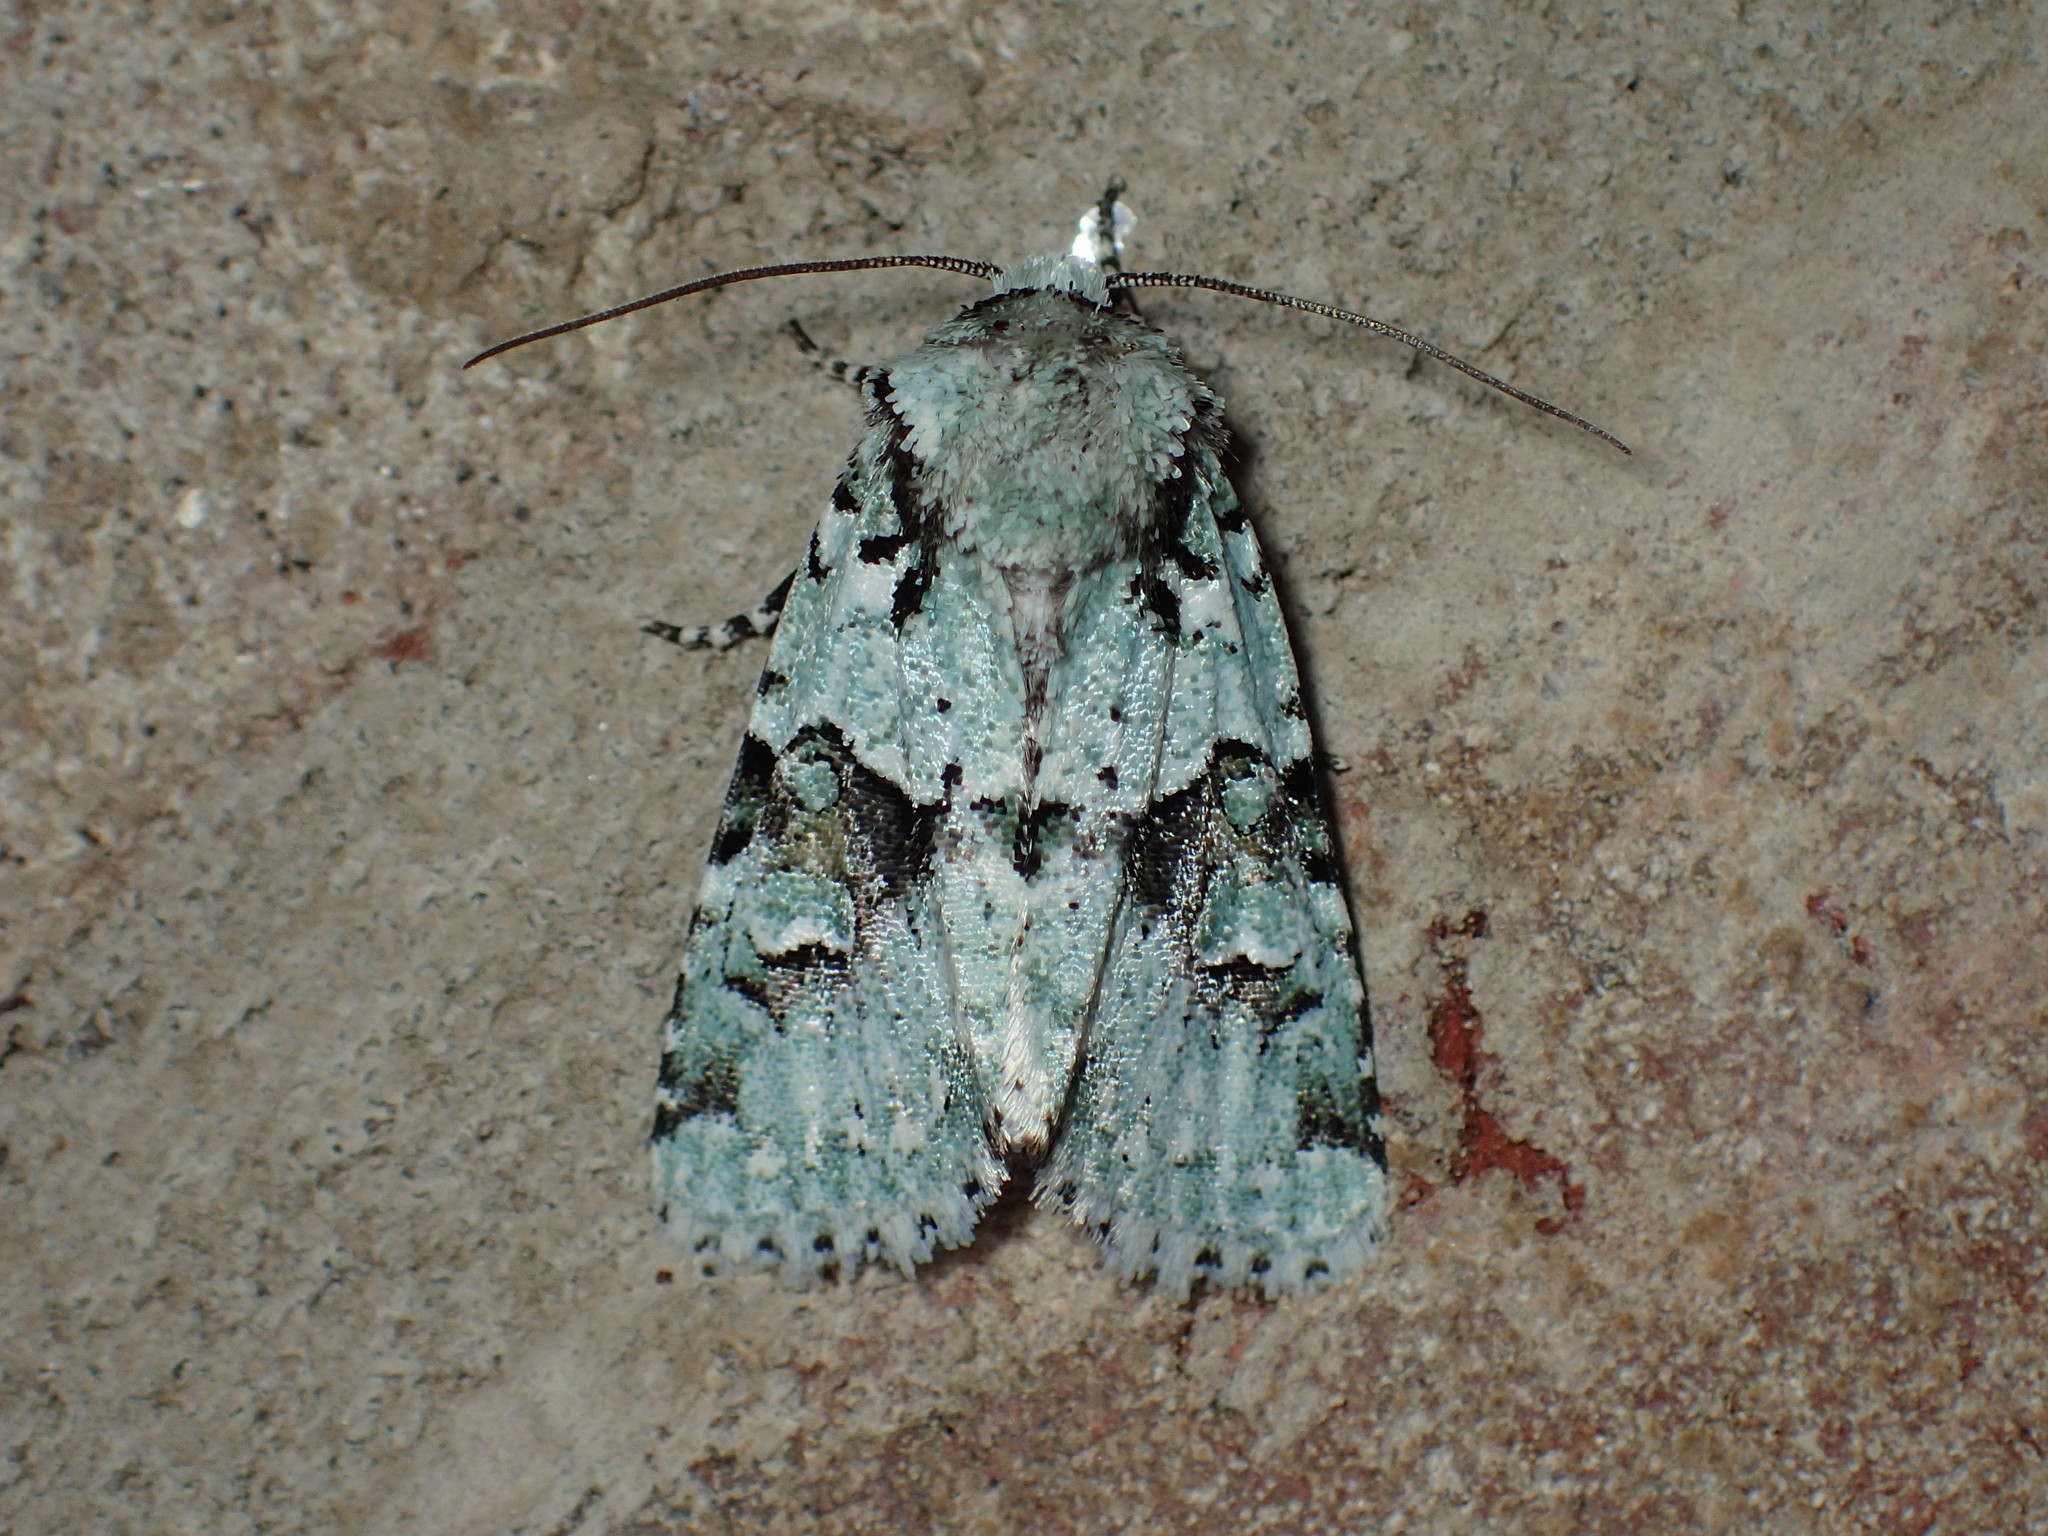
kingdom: Animalia
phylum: Arthropoda
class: Insecta
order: Lepidoptera
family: Noctuidae
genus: Lacinipolia
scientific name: Lacinipolia implicata
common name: Implicit arches
